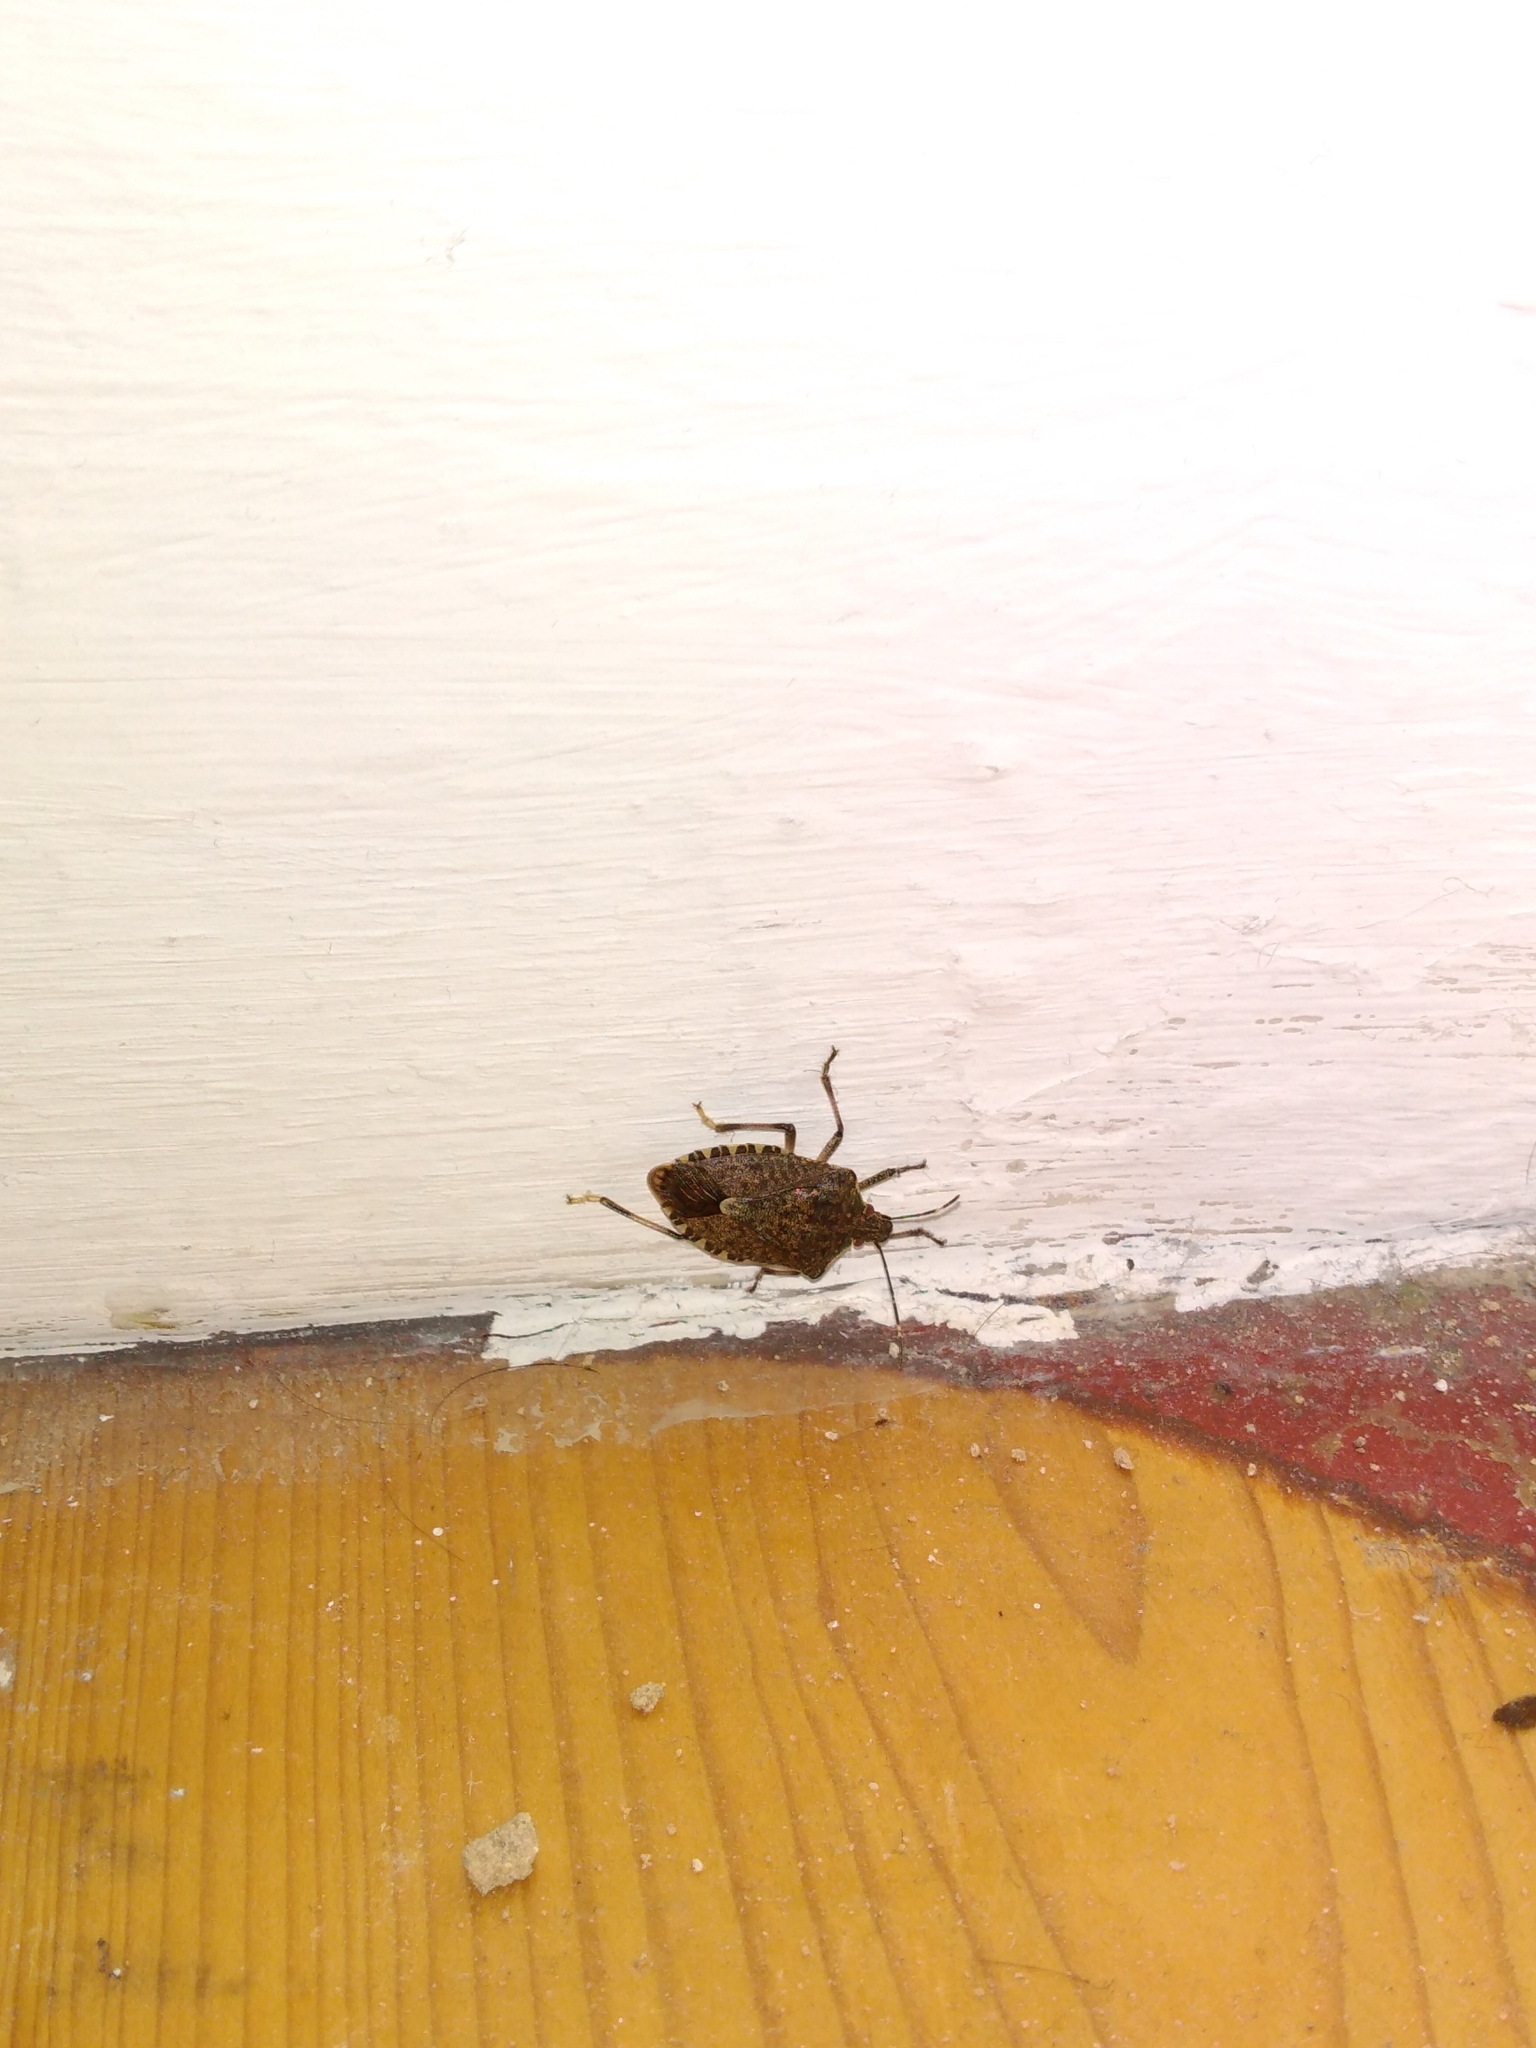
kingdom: Animalia
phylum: Arthropoda
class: Insecta
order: Hemiptera
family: Pentatomidae
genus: Halyomorpha
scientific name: Halyomorpha halys
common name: Brown marmorated stink bug
